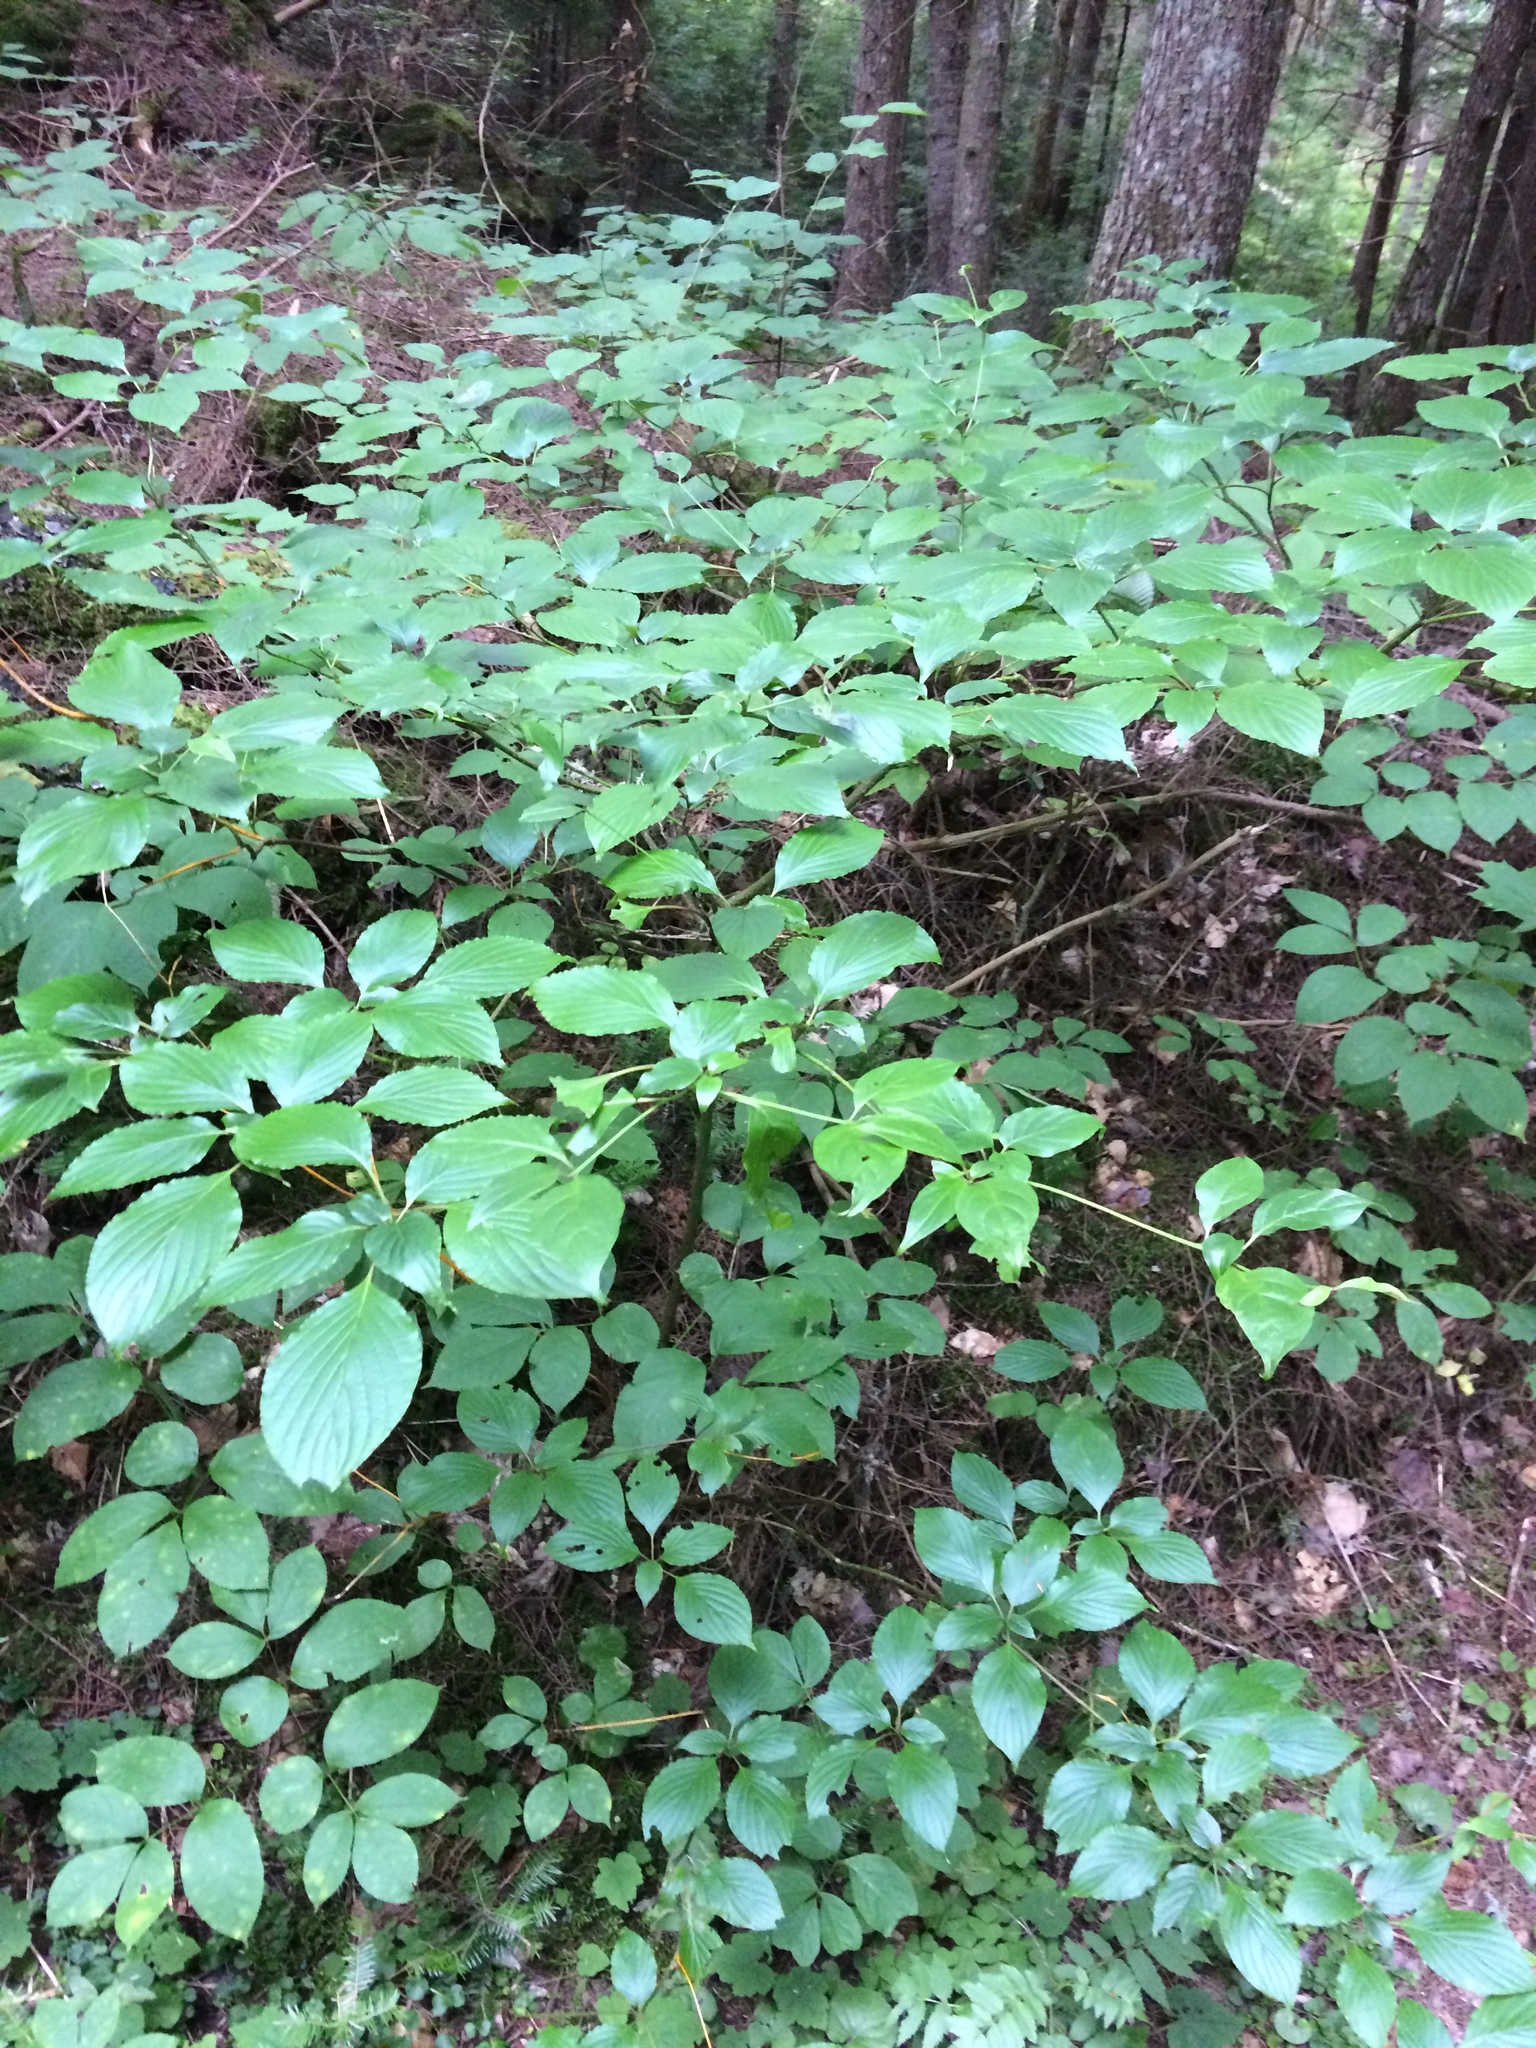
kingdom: Plantae
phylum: Tracheophyta
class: Magnoliopsida
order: Cornales
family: Cornaceae
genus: Cornus
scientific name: Cornus alternifolia
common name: Pagoda dogwood
